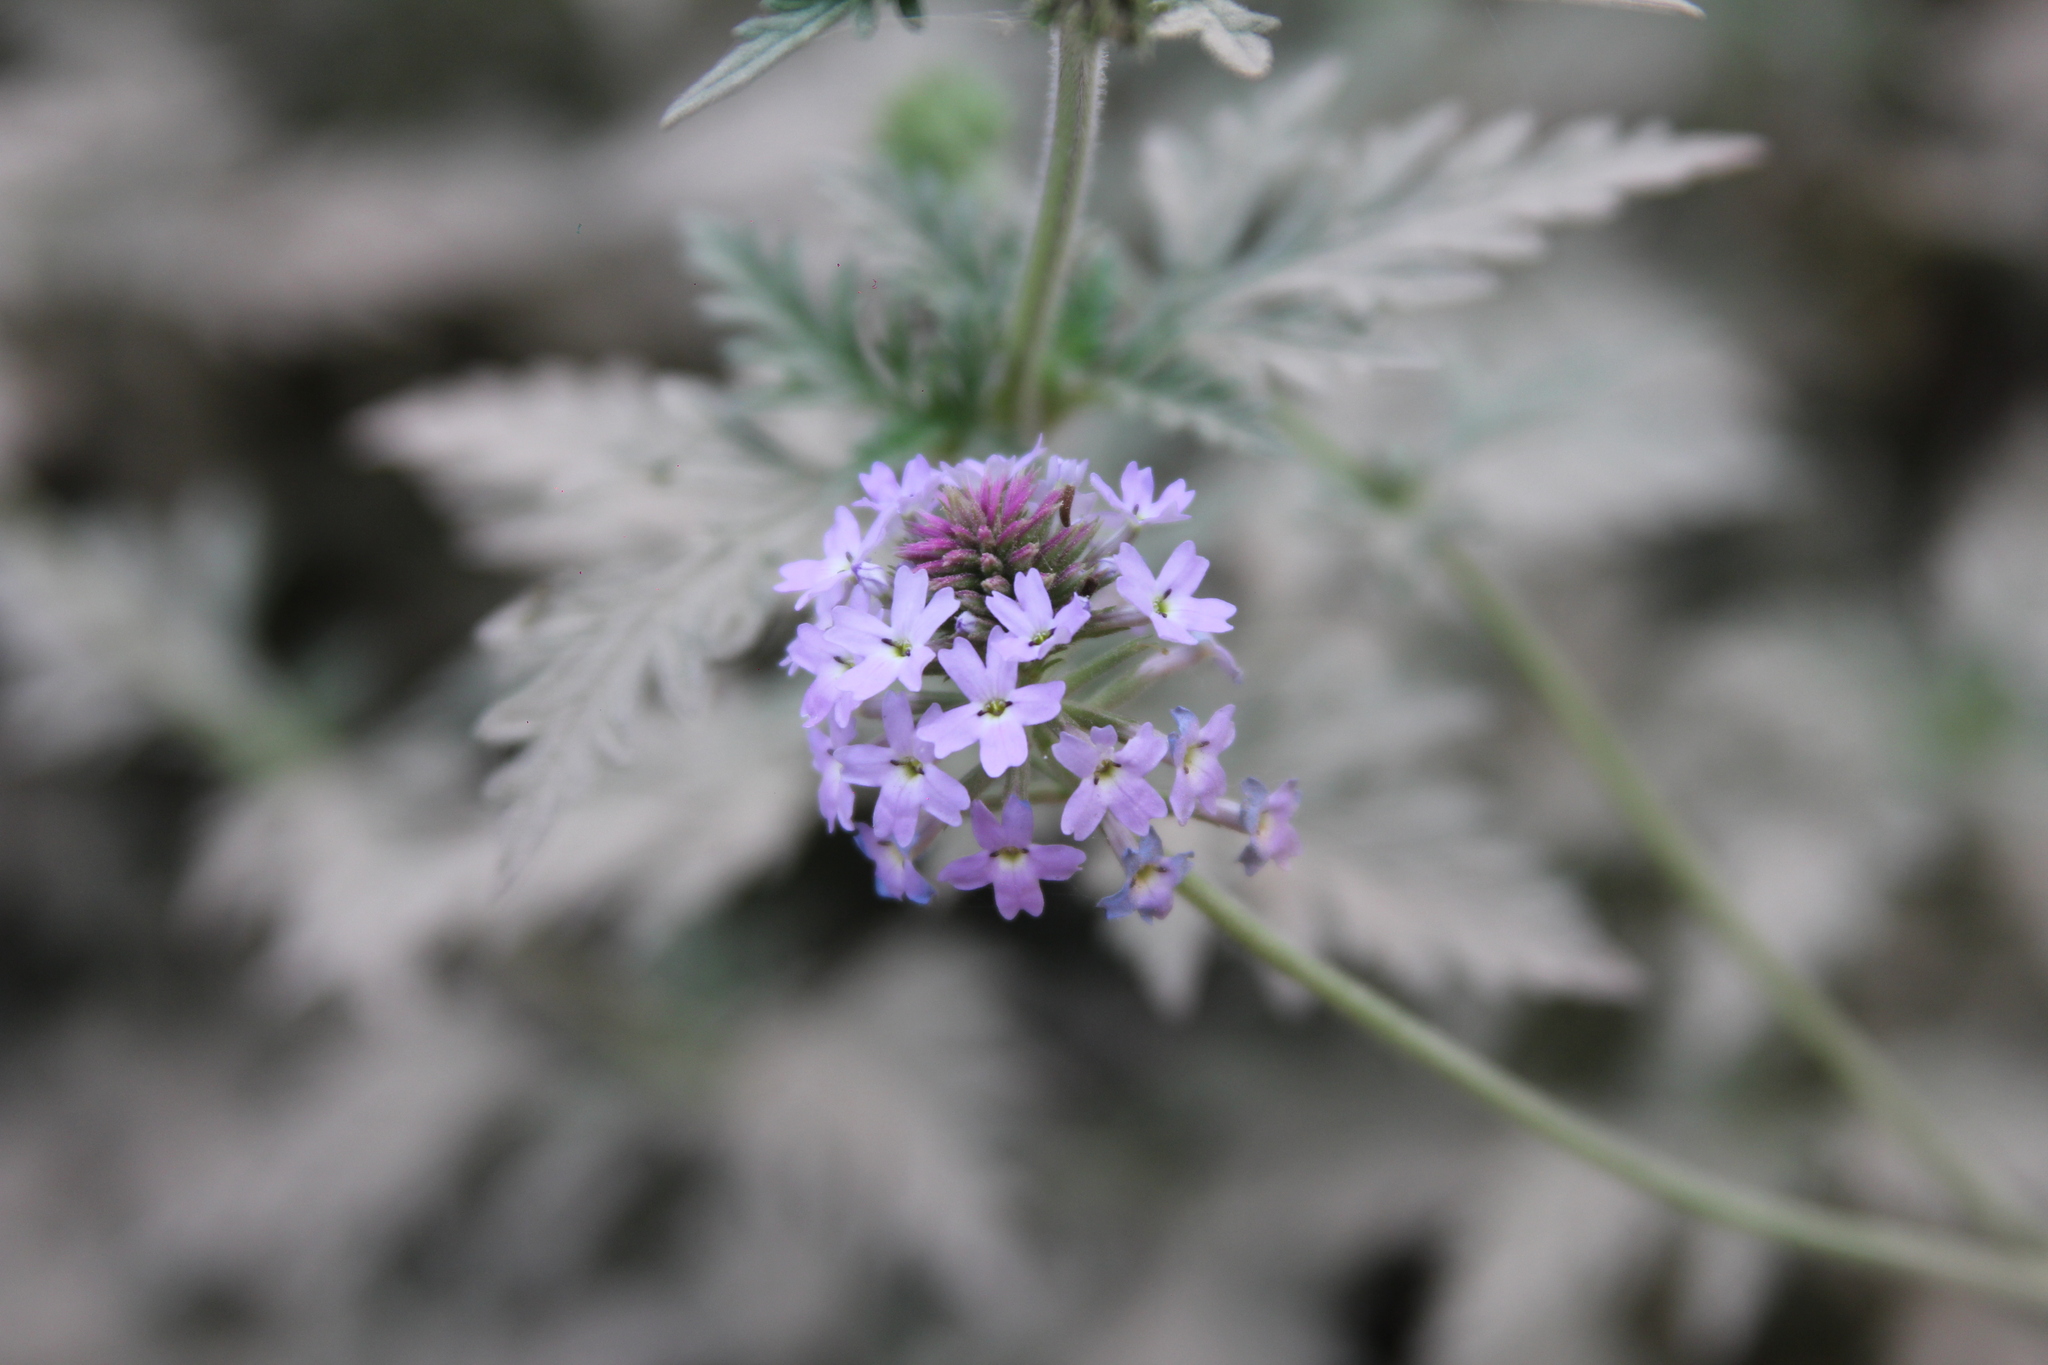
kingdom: Plantae
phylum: Tracheophyta
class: Magnoliopsida
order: Lamiales
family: Verbenaceae
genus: Verbena
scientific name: Verbena venturii
